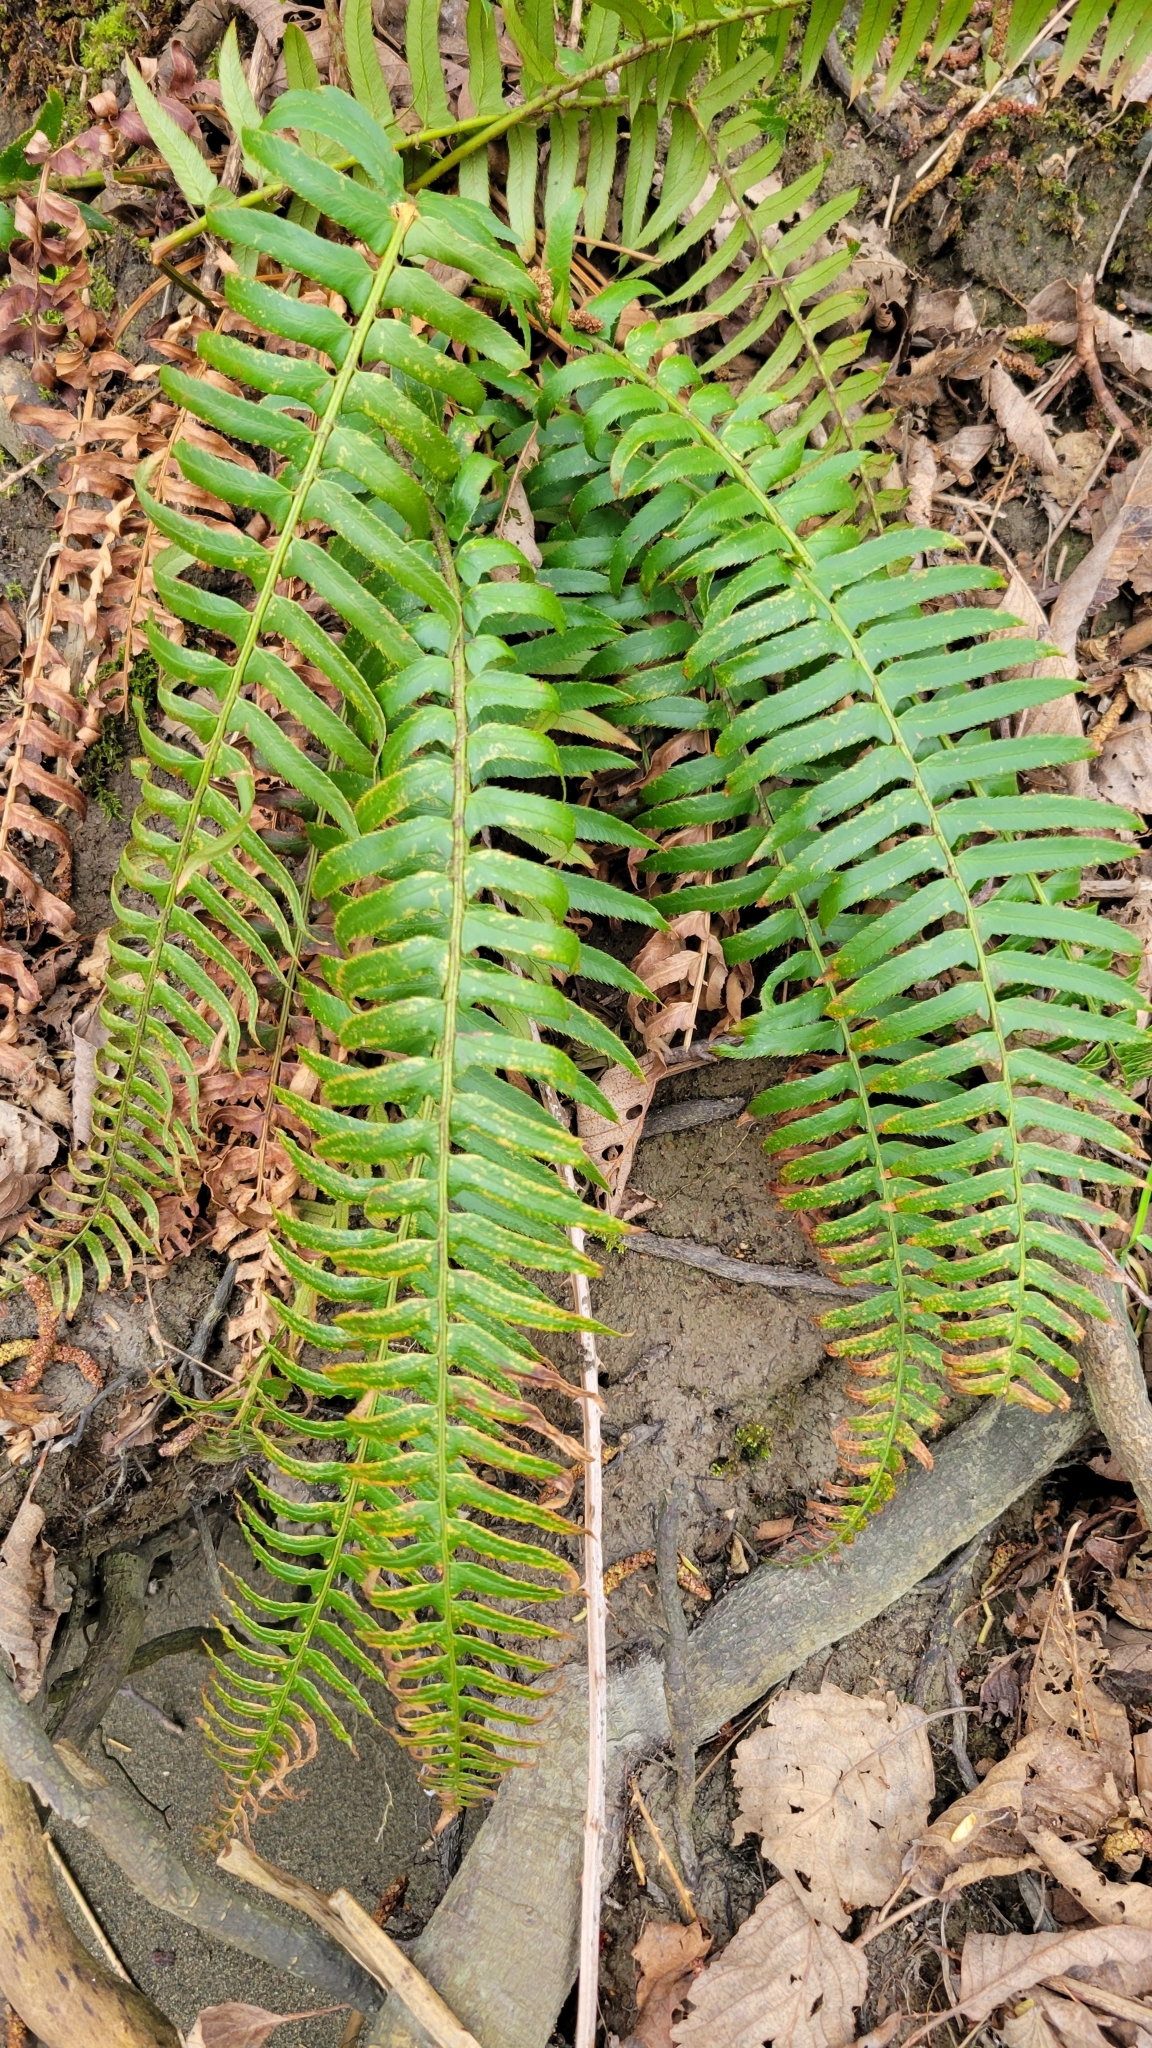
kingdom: Plantae
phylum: Tracheophyta
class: Polypodiopsida
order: Polypodiales
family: Dryopteridaceae
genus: Polystichum
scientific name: Polystichum munitum
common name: Western sword-fern
